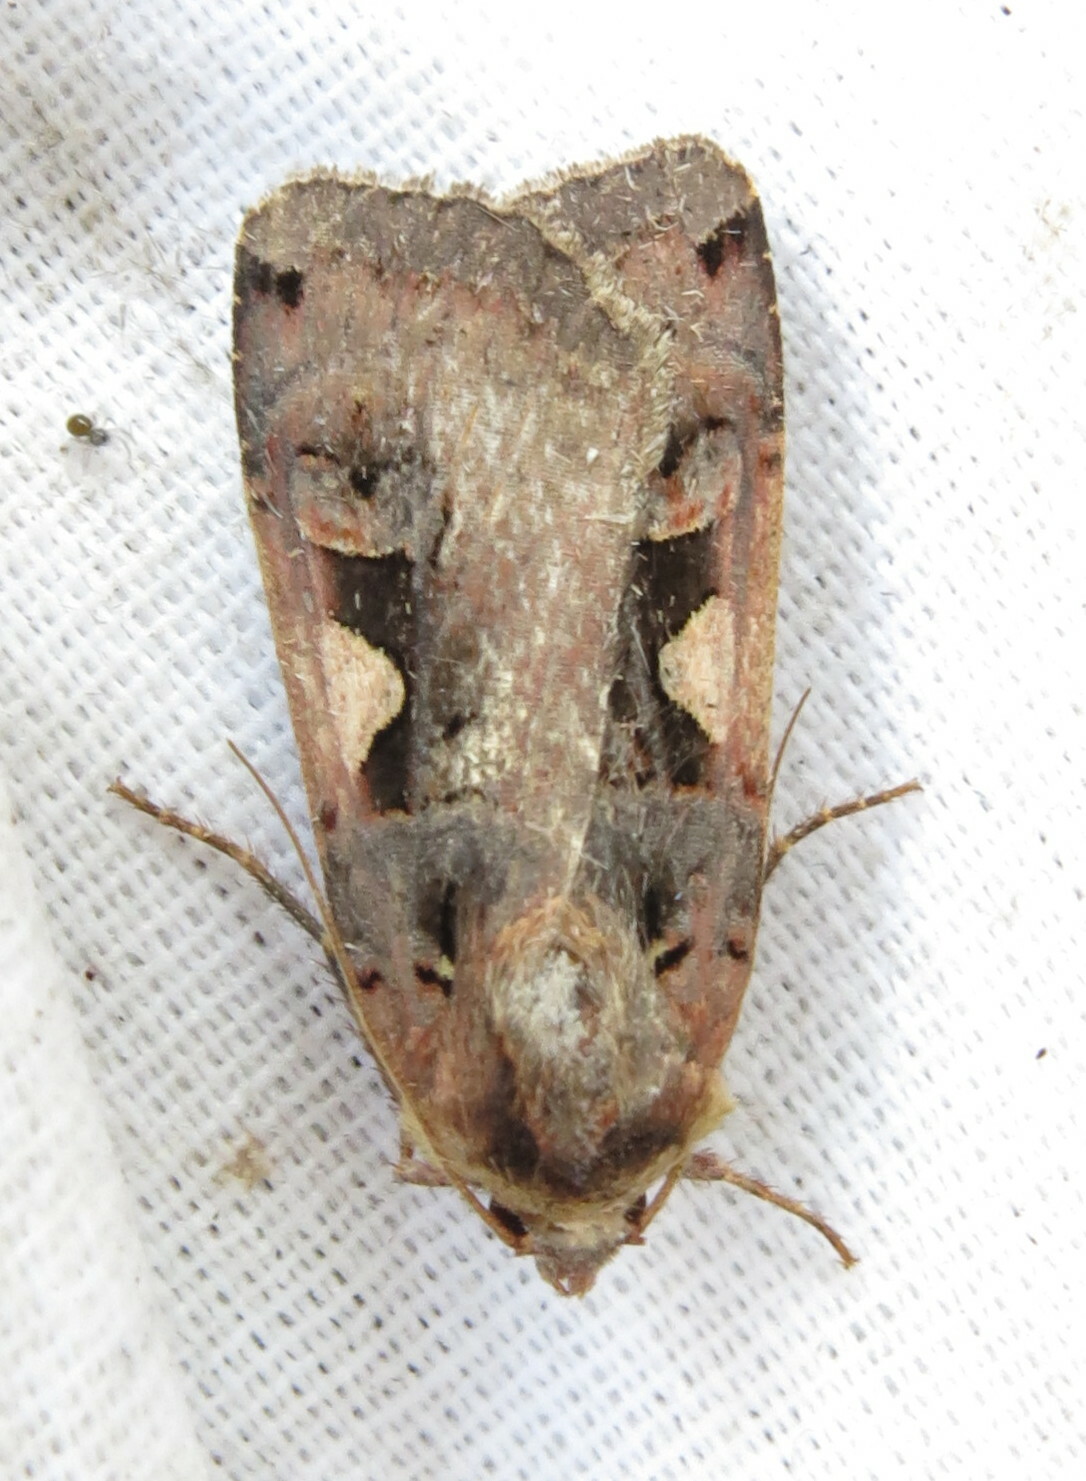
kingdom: Animalia
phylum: Arthropoda
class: Insecta
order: Lepidoptera
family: Noctuidae
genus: Xestia
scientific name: Xestia c-nigrum
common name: Setaceous hebrew character
